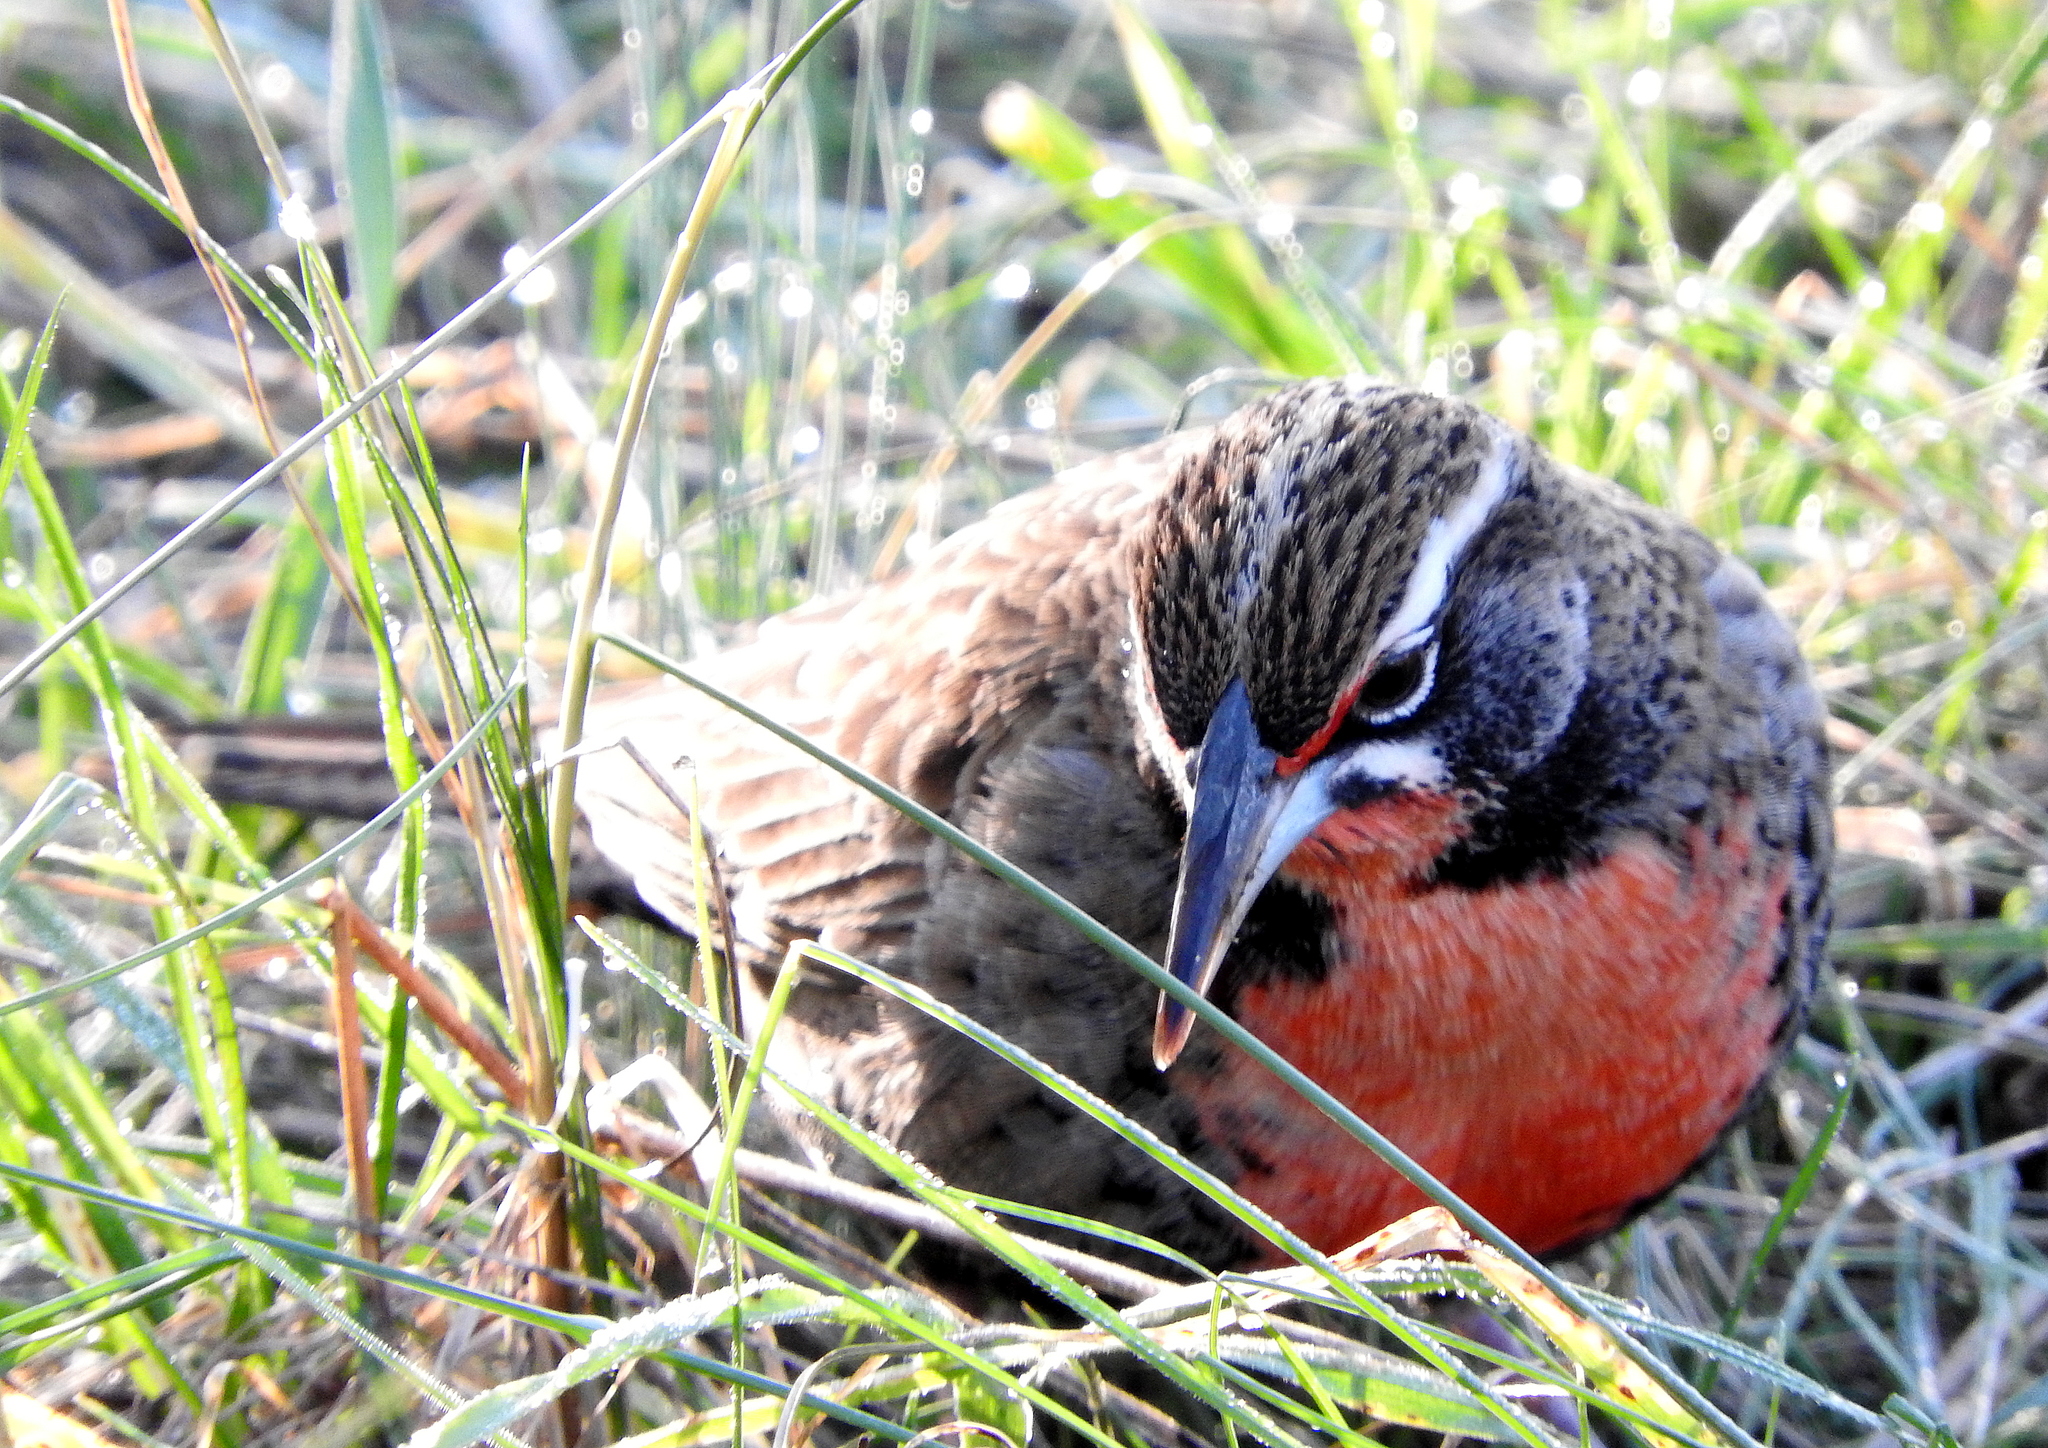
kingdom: Animalia
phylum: Chordata
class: Aves
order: Passeriformes
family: Icteridae
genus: Sturnella
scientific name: Sturnella loyca
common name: Long-tailed meadowlark
